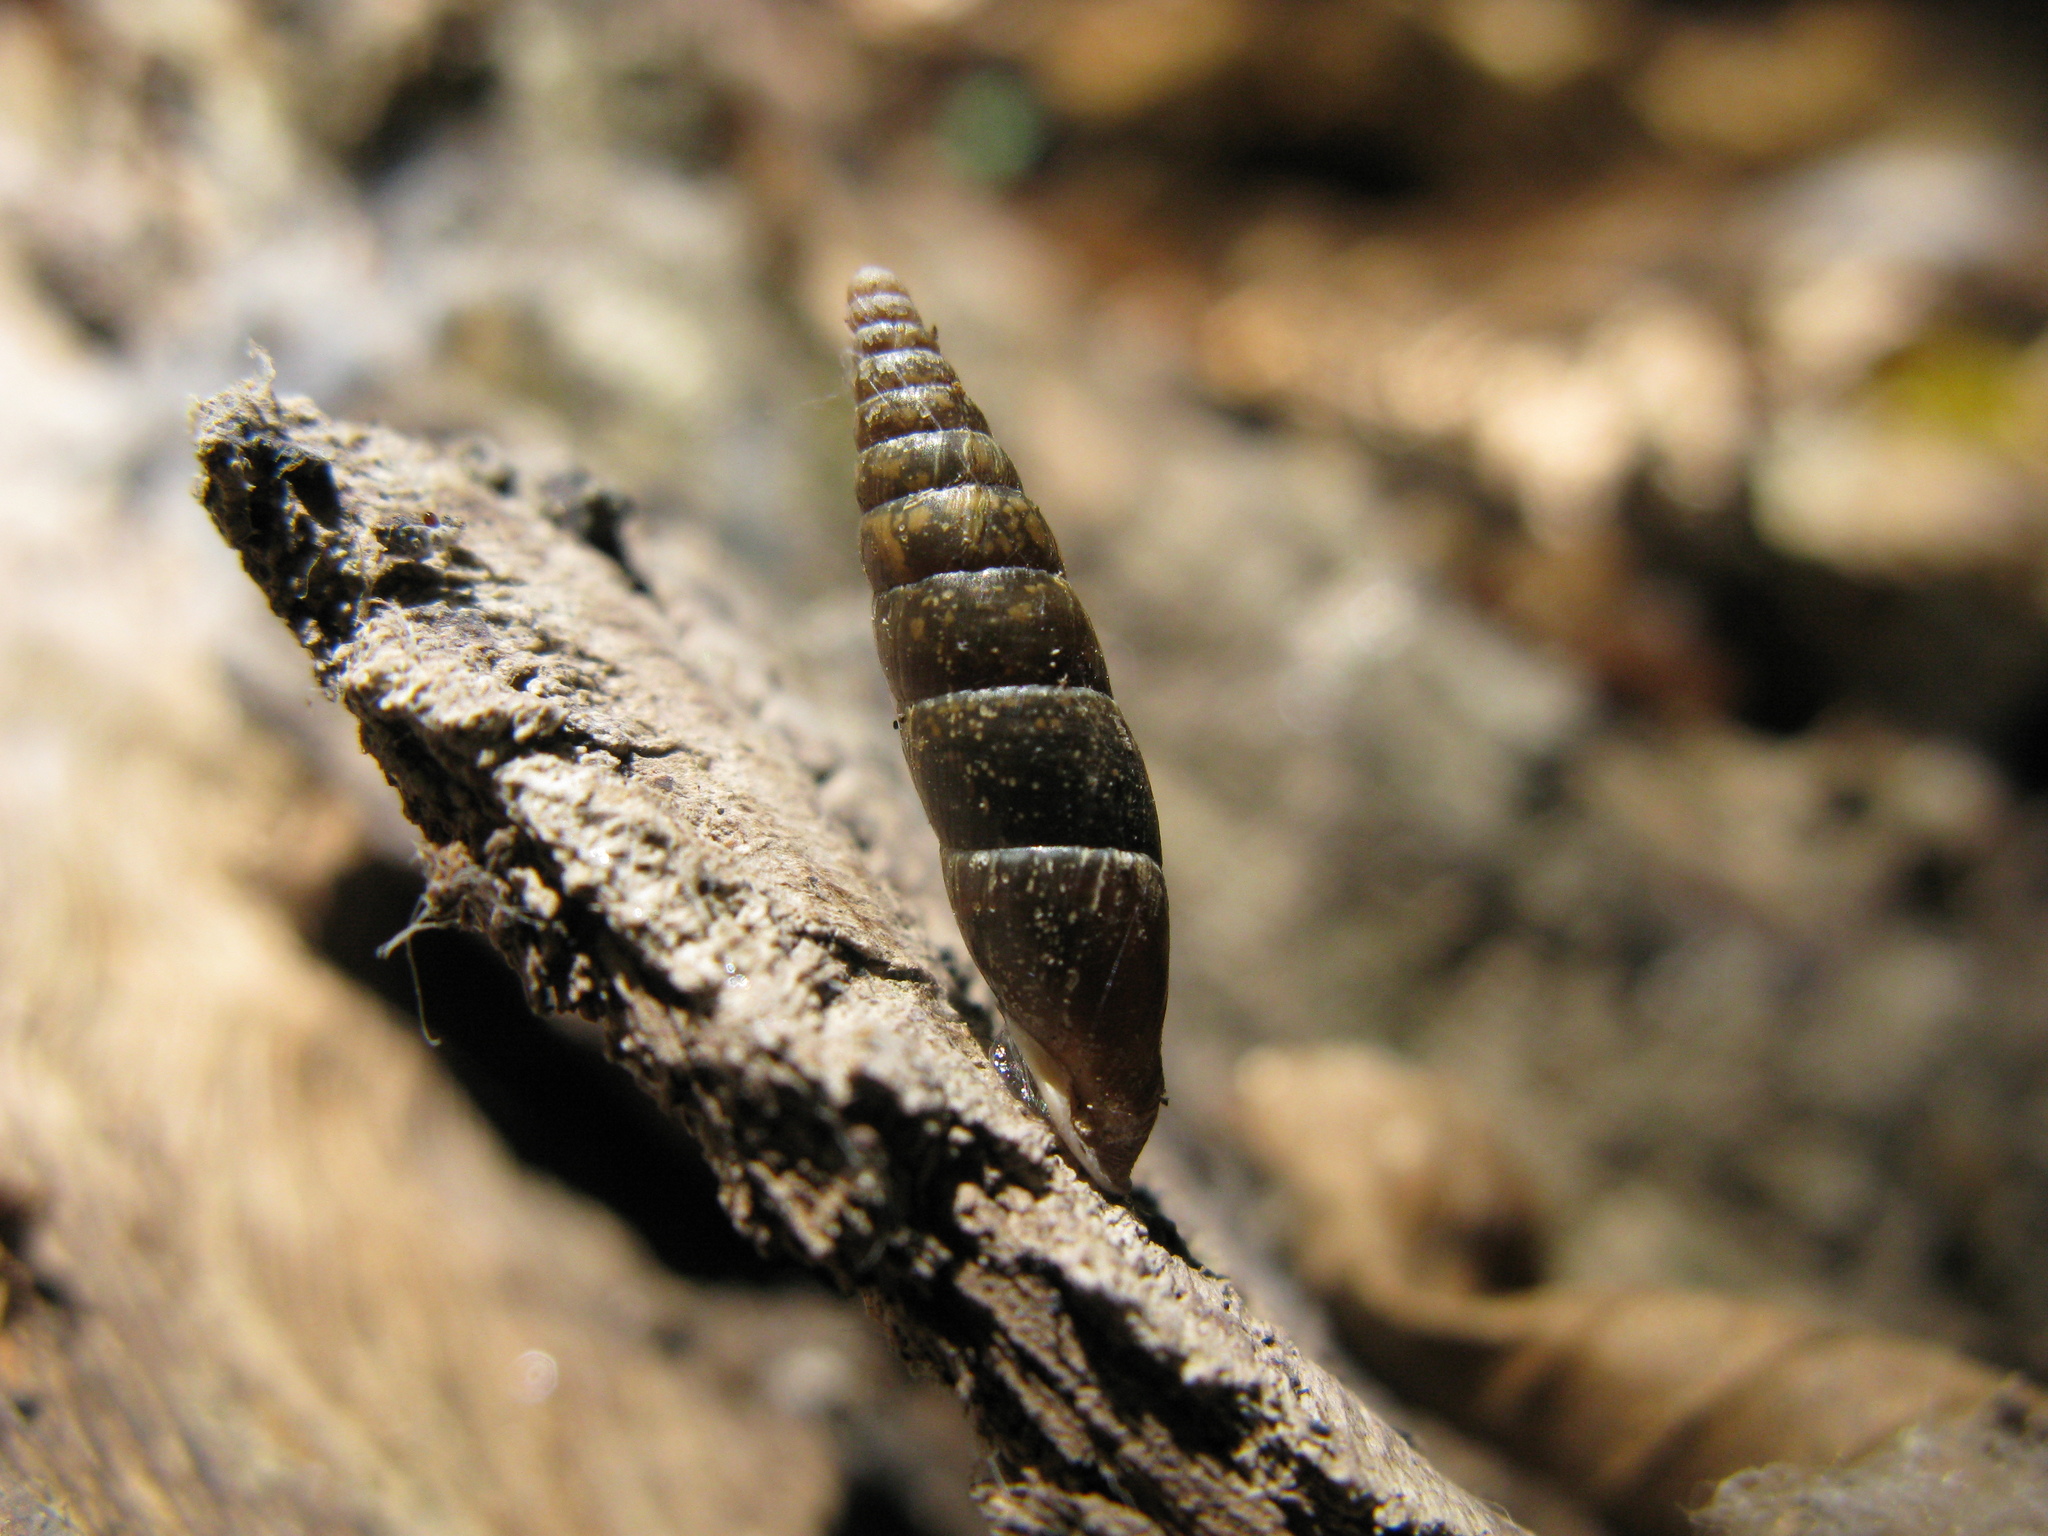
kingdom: Animalia
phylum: Mollusca
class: Gastropoda
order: Stylommatophora
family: Clausiliidae
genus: Cochlodina
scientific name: Cochlodina laminata
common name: Plaited door snail
